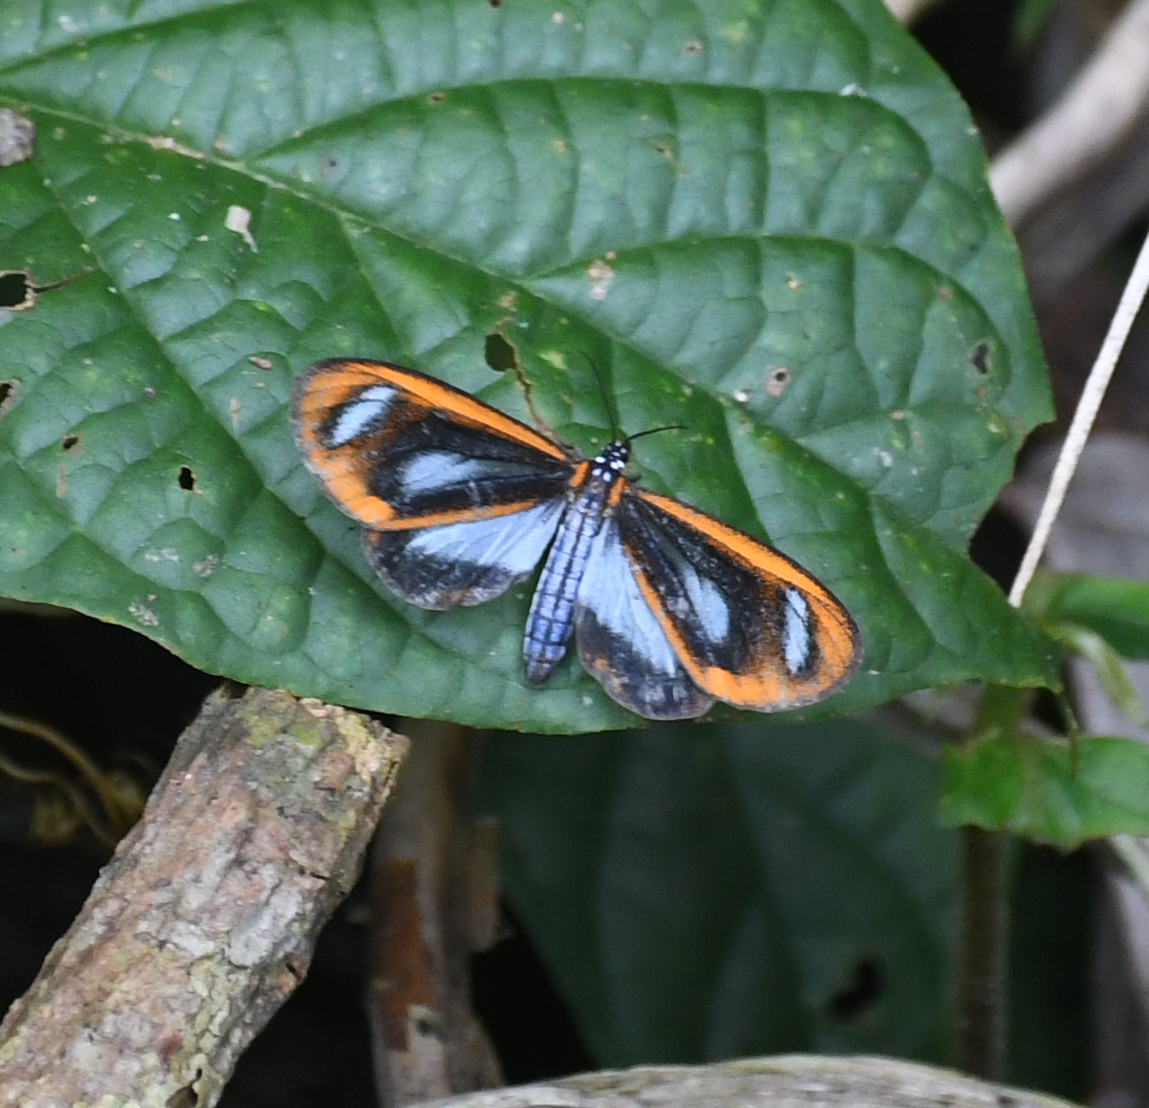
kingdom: Animalia
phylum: Arthropoda
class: Insecta
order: Lepidoptera
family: Erebidae
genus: Hyalurga
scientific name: Hyalurga osiba
